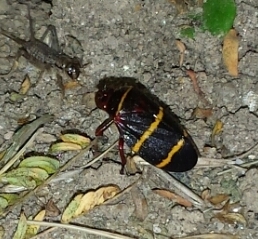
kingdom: Animalia
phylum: Arthropoda
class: Insecta
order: Hemiptera
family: Cercopidae
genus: Prosapia
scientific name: Prosapia bicincta
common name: Twolined spittlebug
